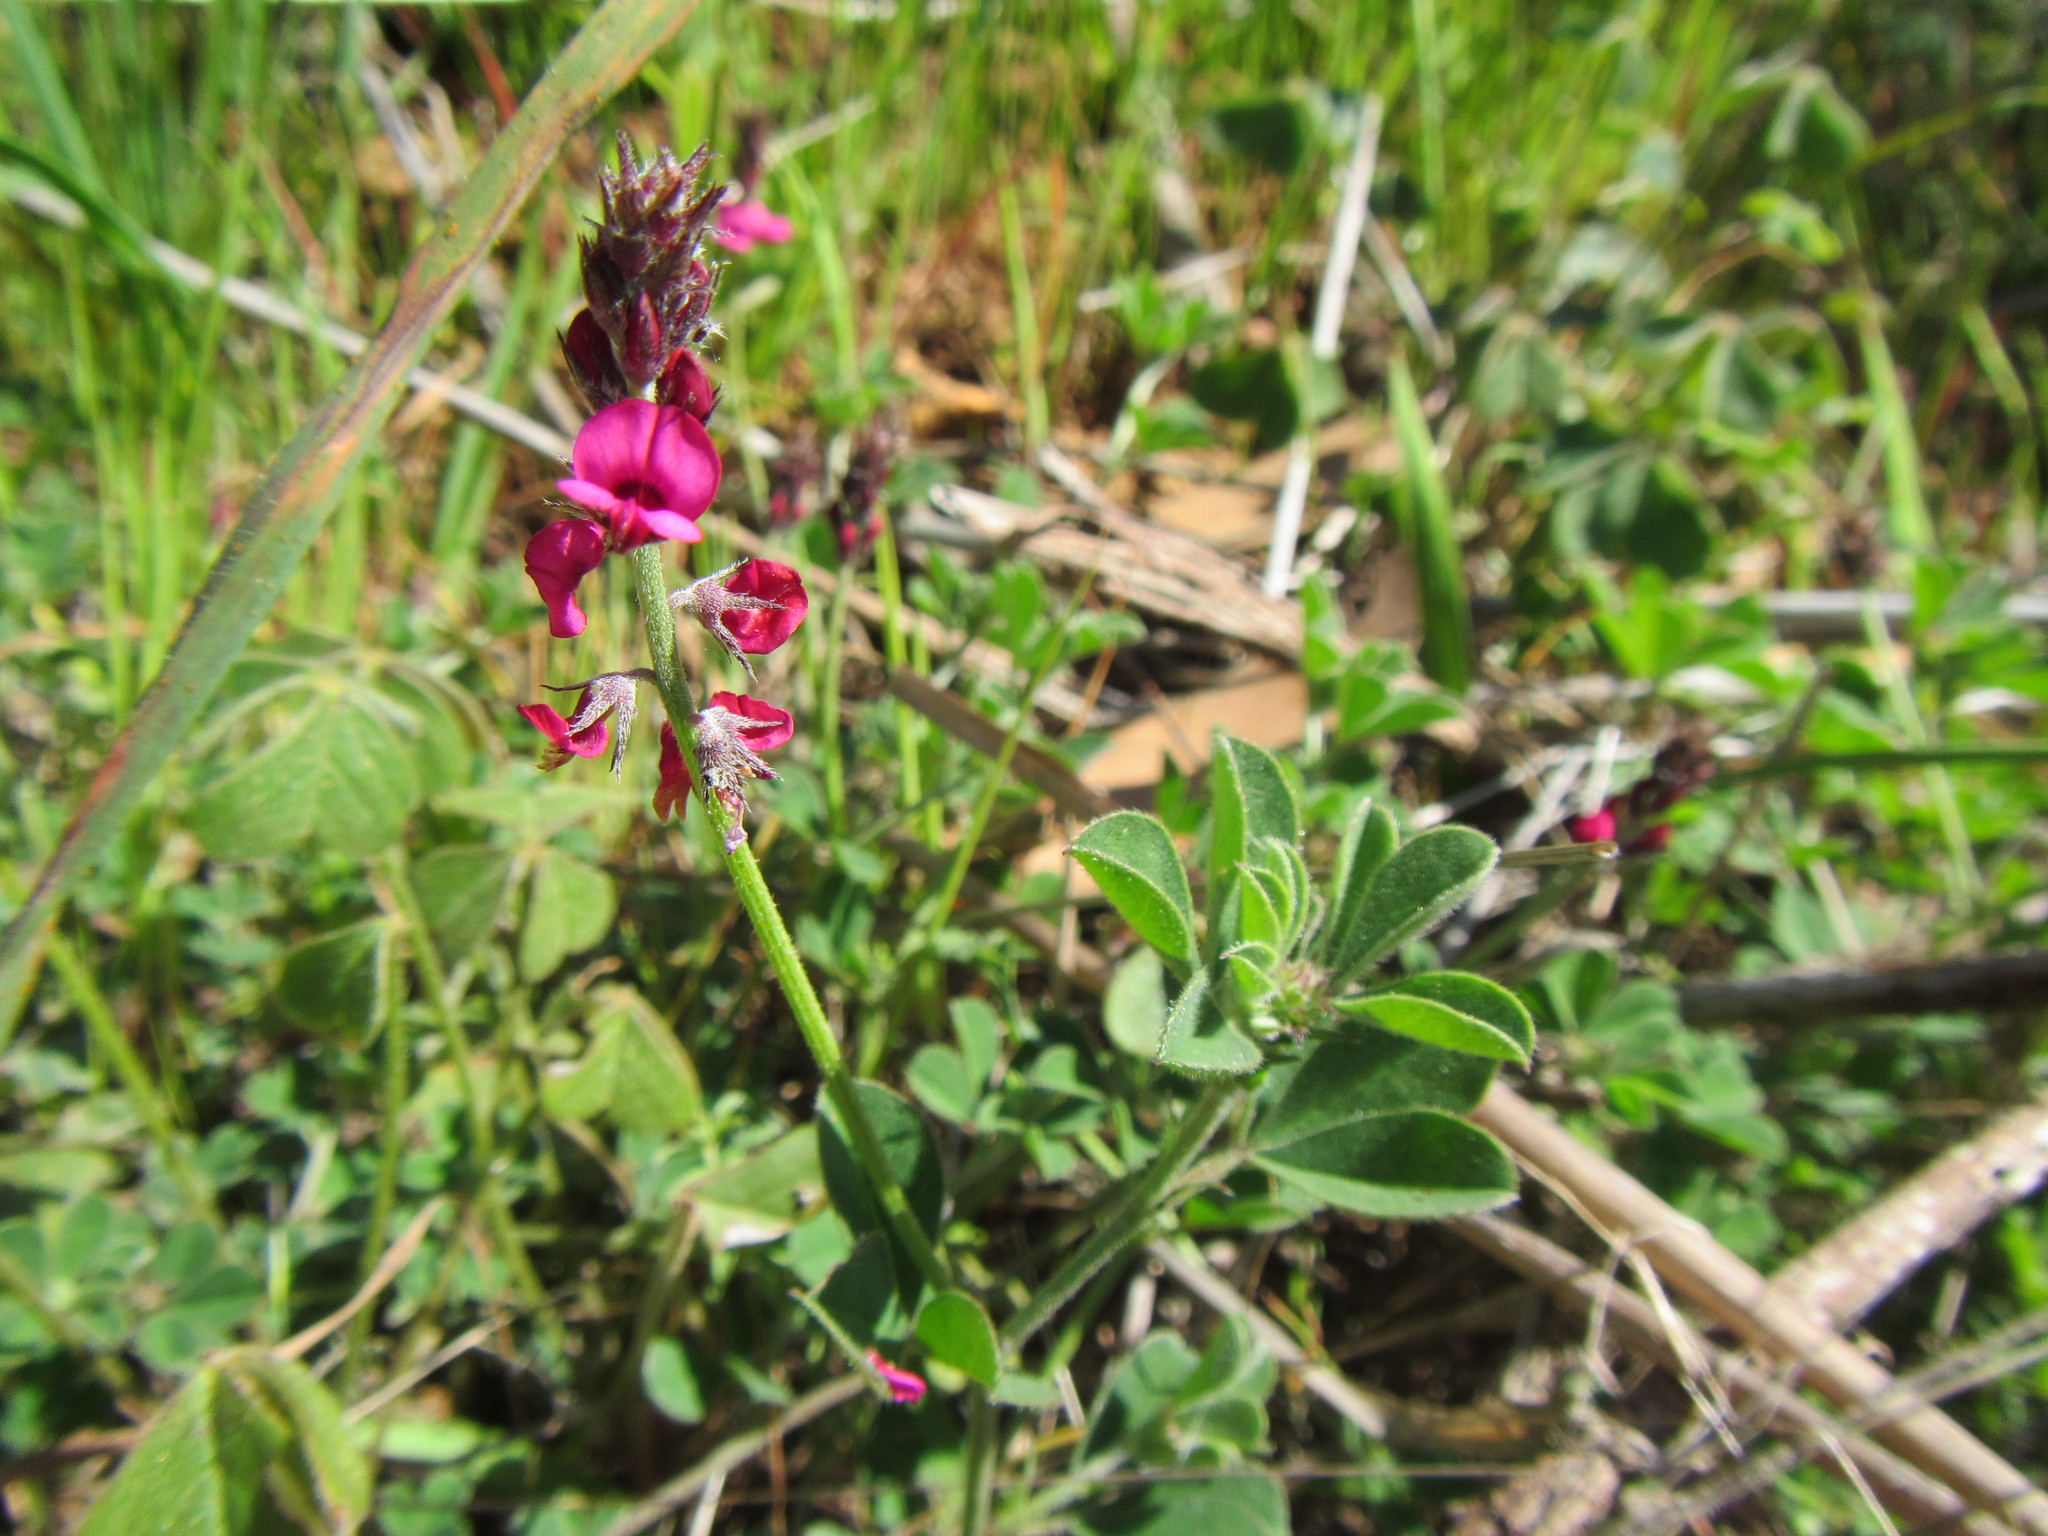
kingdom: Plantae
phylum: Tracheophyta
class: Magnoliopsida
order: Fabales
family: Fabaceae
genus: Indigofera
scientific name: Indigofera incana
